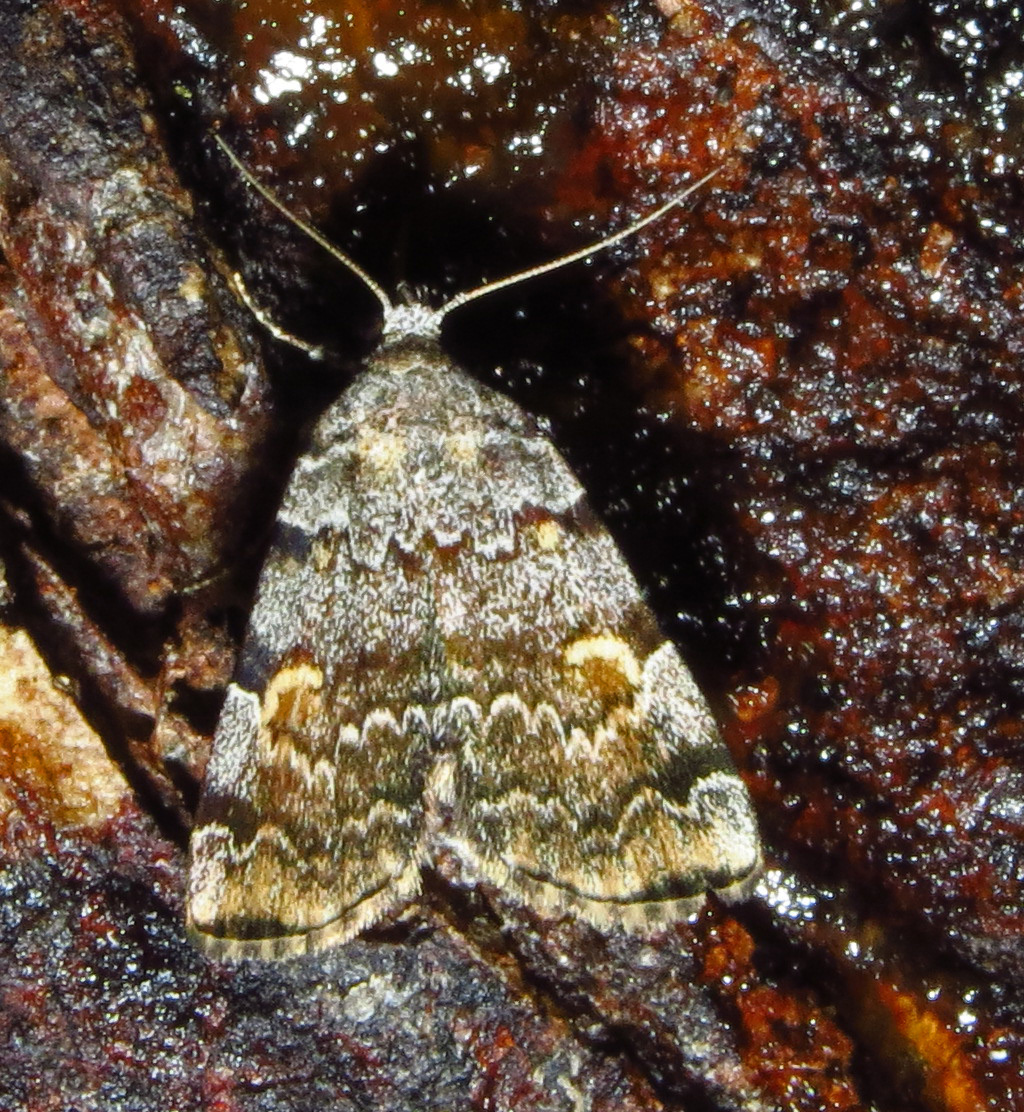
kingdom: Animalia
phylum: Arthropoda
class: Insecta
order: Lepidoptera
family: Erebidae
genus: Idia
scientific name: Idia americalis
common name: American idia moth
